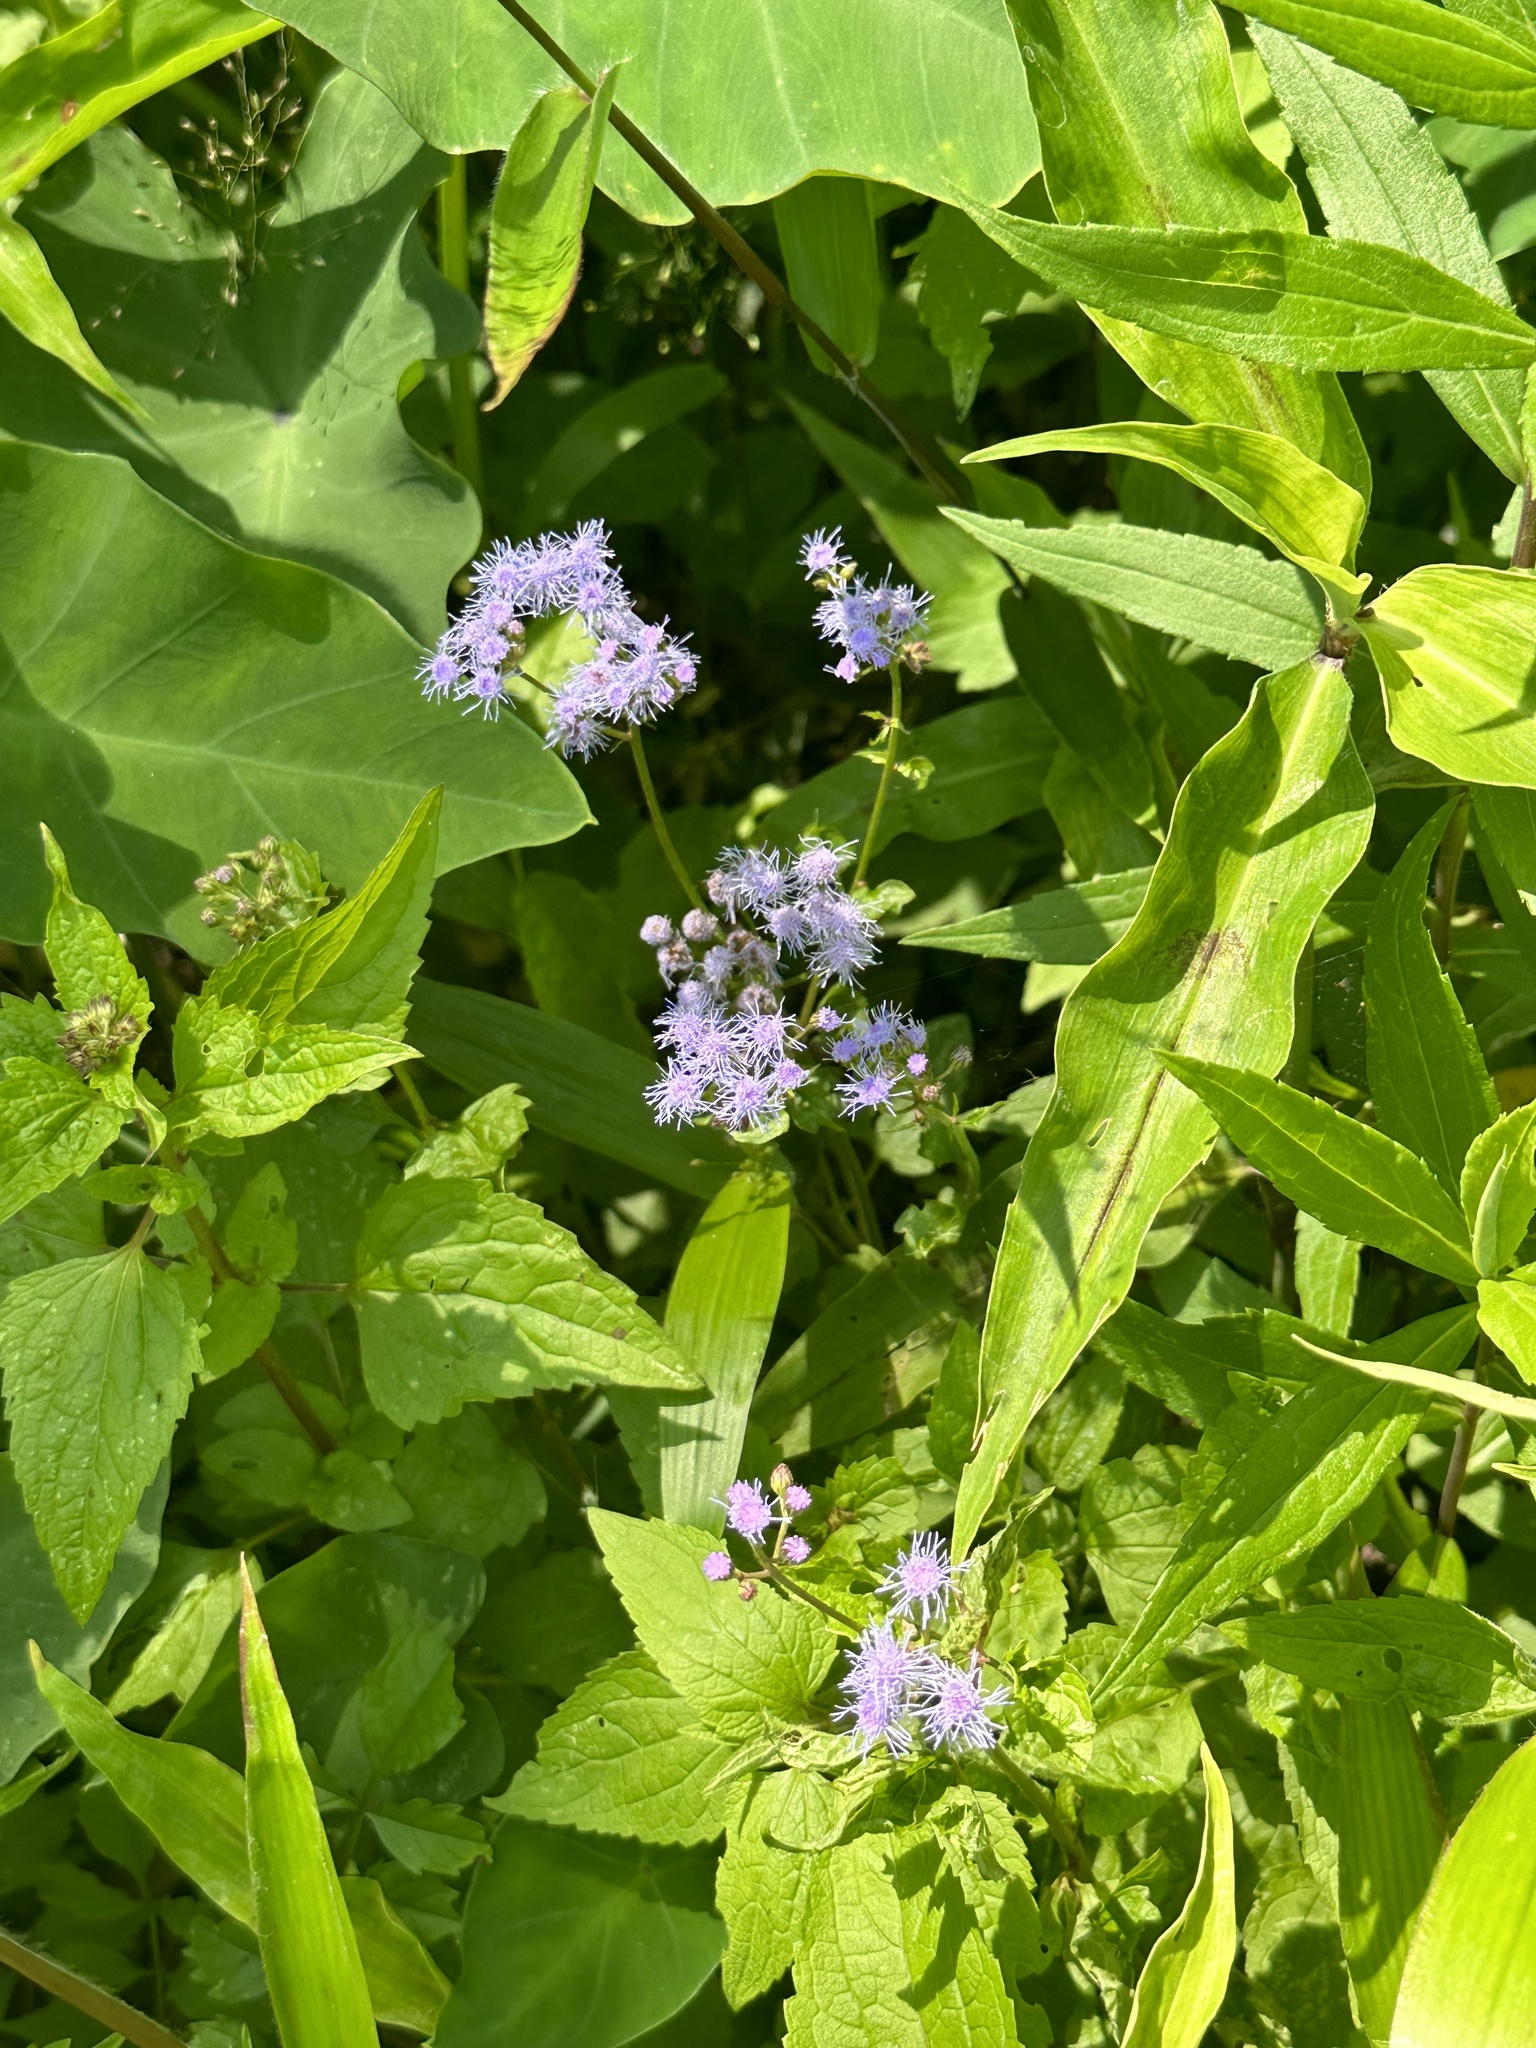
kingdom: Plantae
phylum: Tracheophyta
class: Magnoliopsida
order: Asterales
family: Asteraceae
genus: Conoclinium
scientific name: Conoclinium coelestinum
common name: Blue mistflower
